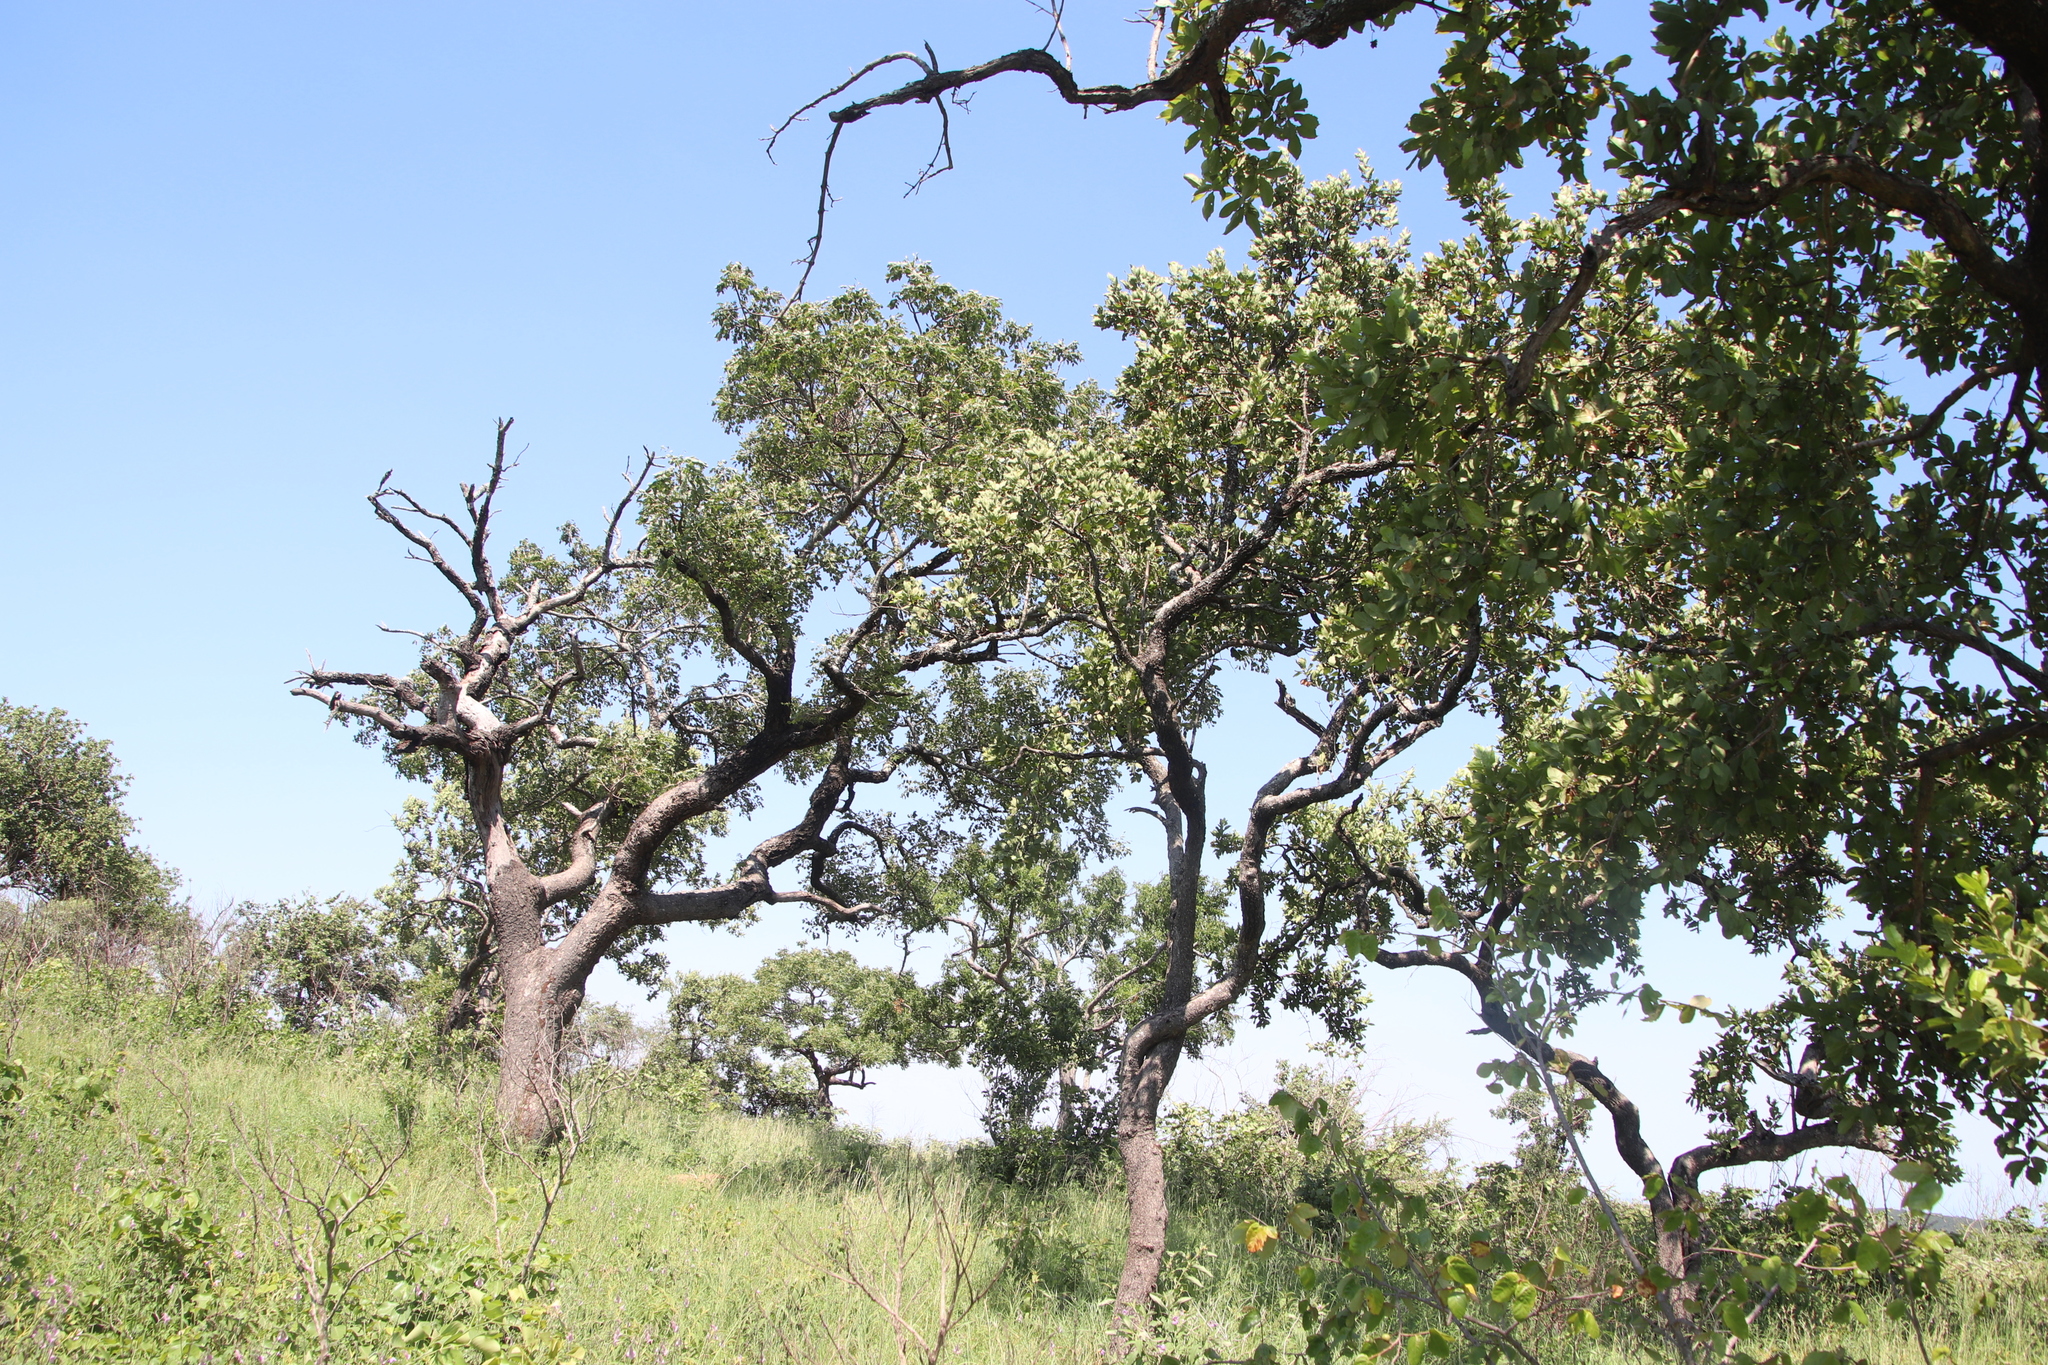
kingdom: Plantae
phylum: Tracheophyta
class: Magnoliopsida
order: Myrtales
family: Combretaceae
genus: Combretum
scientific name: Combretum apiculatum
